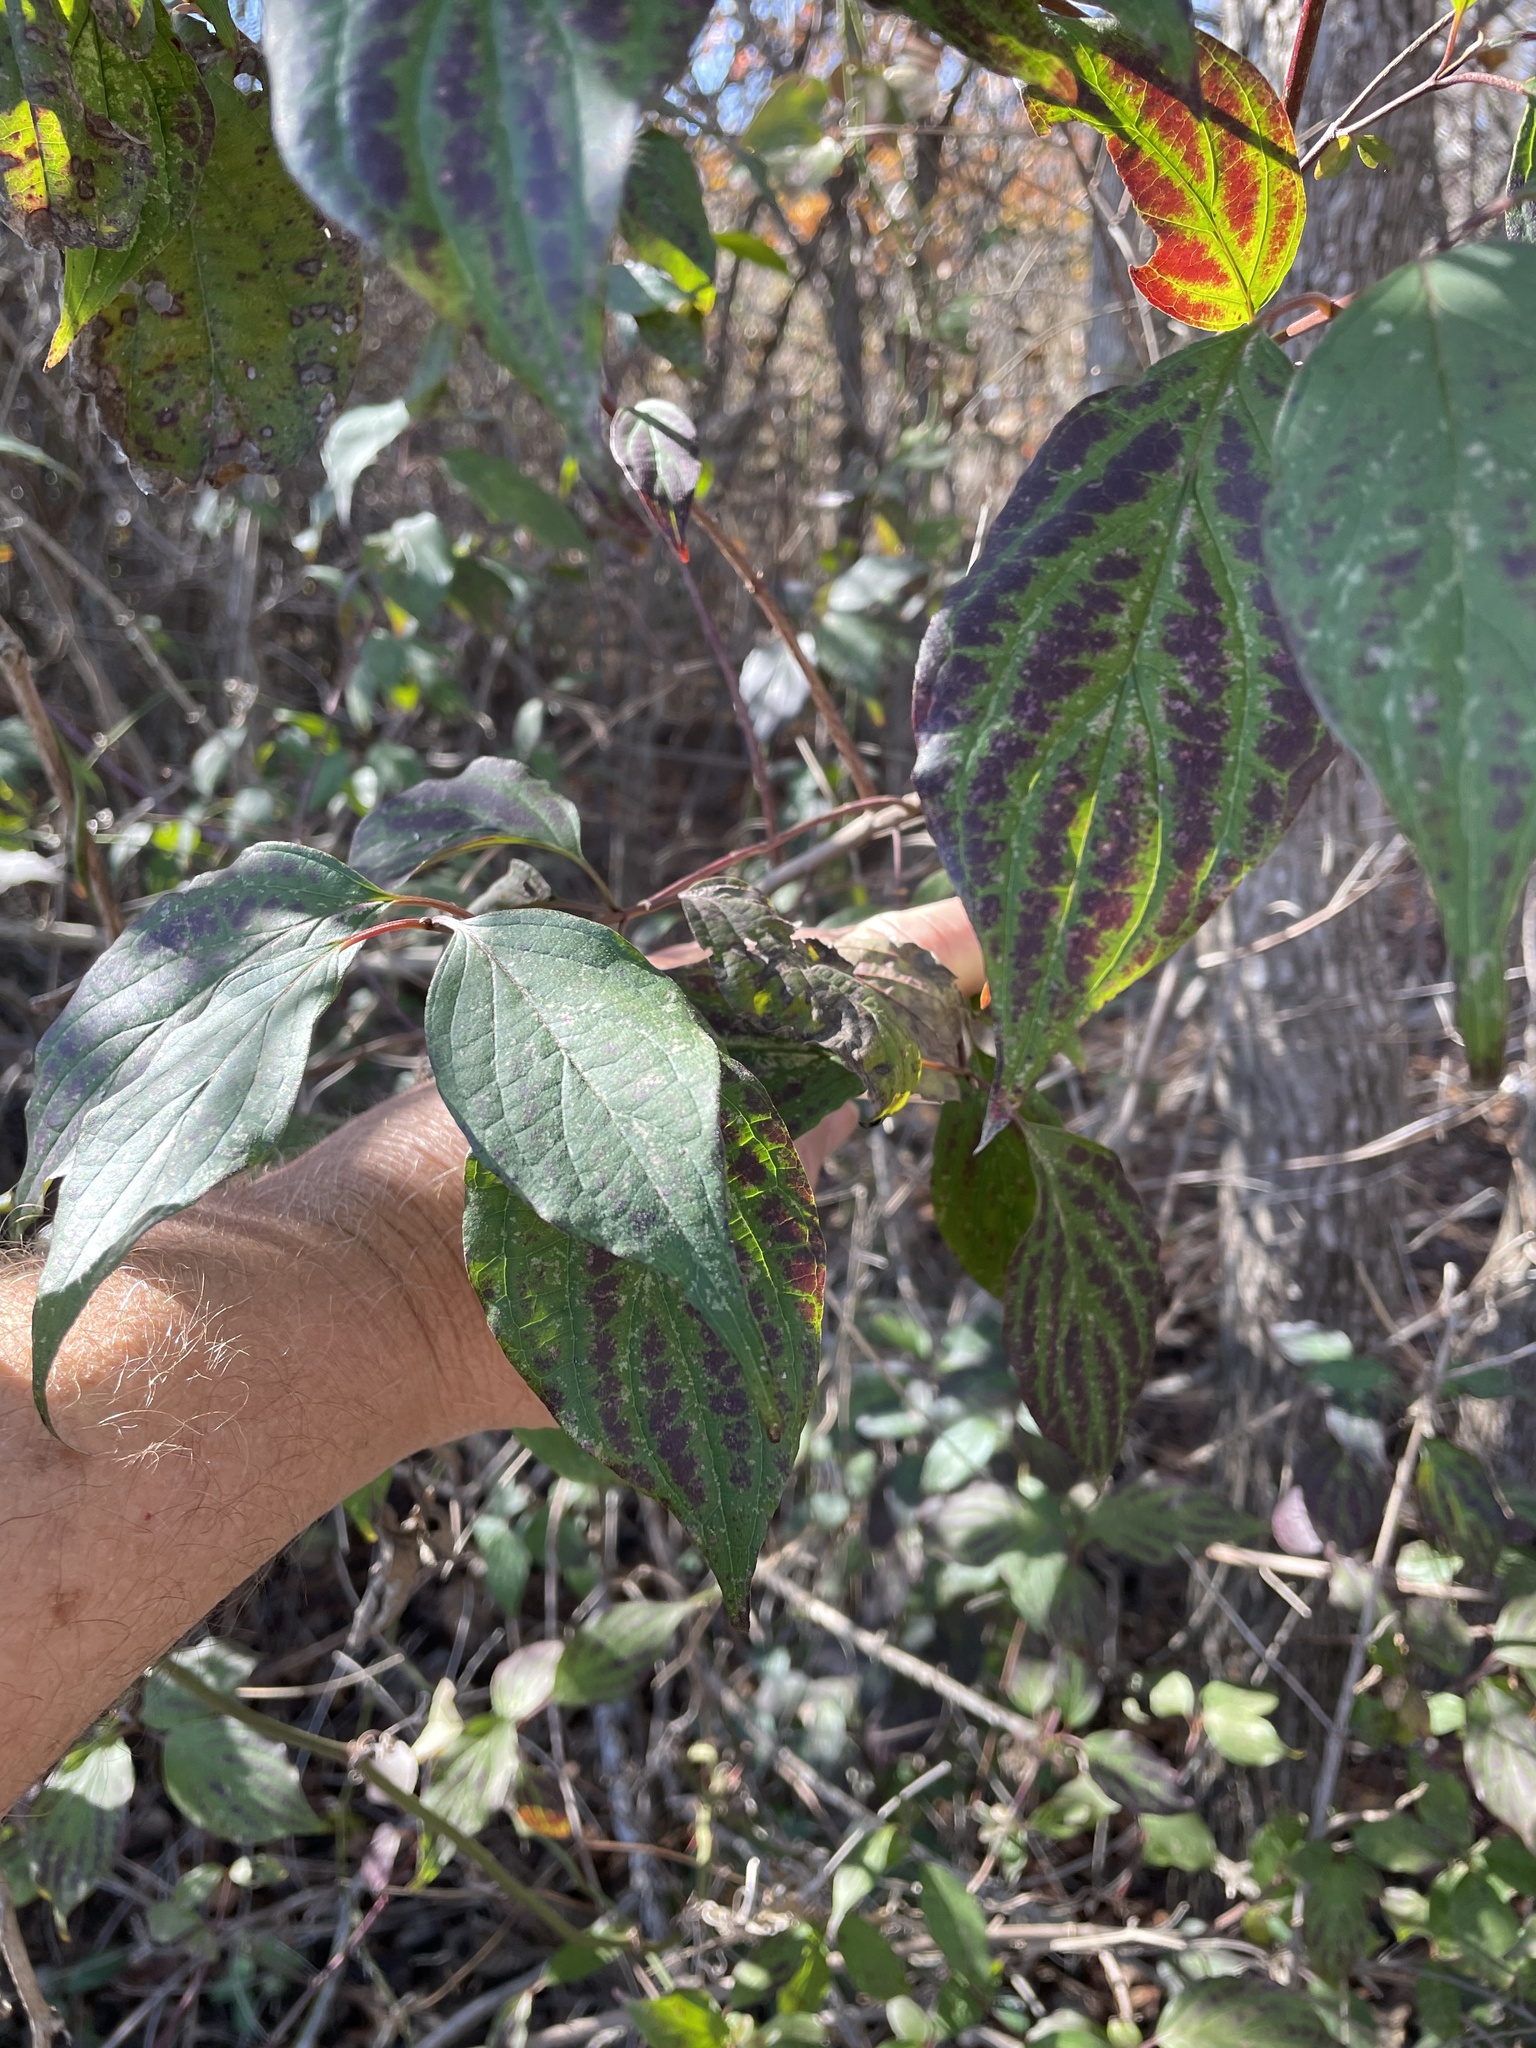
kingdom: Plantae
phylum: Tracheophyta
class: Magnoliopsida
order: Cornales
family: Cornaceae
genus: Cornus
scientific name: Cornus drummondii
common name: Rough-leaf dogwood
